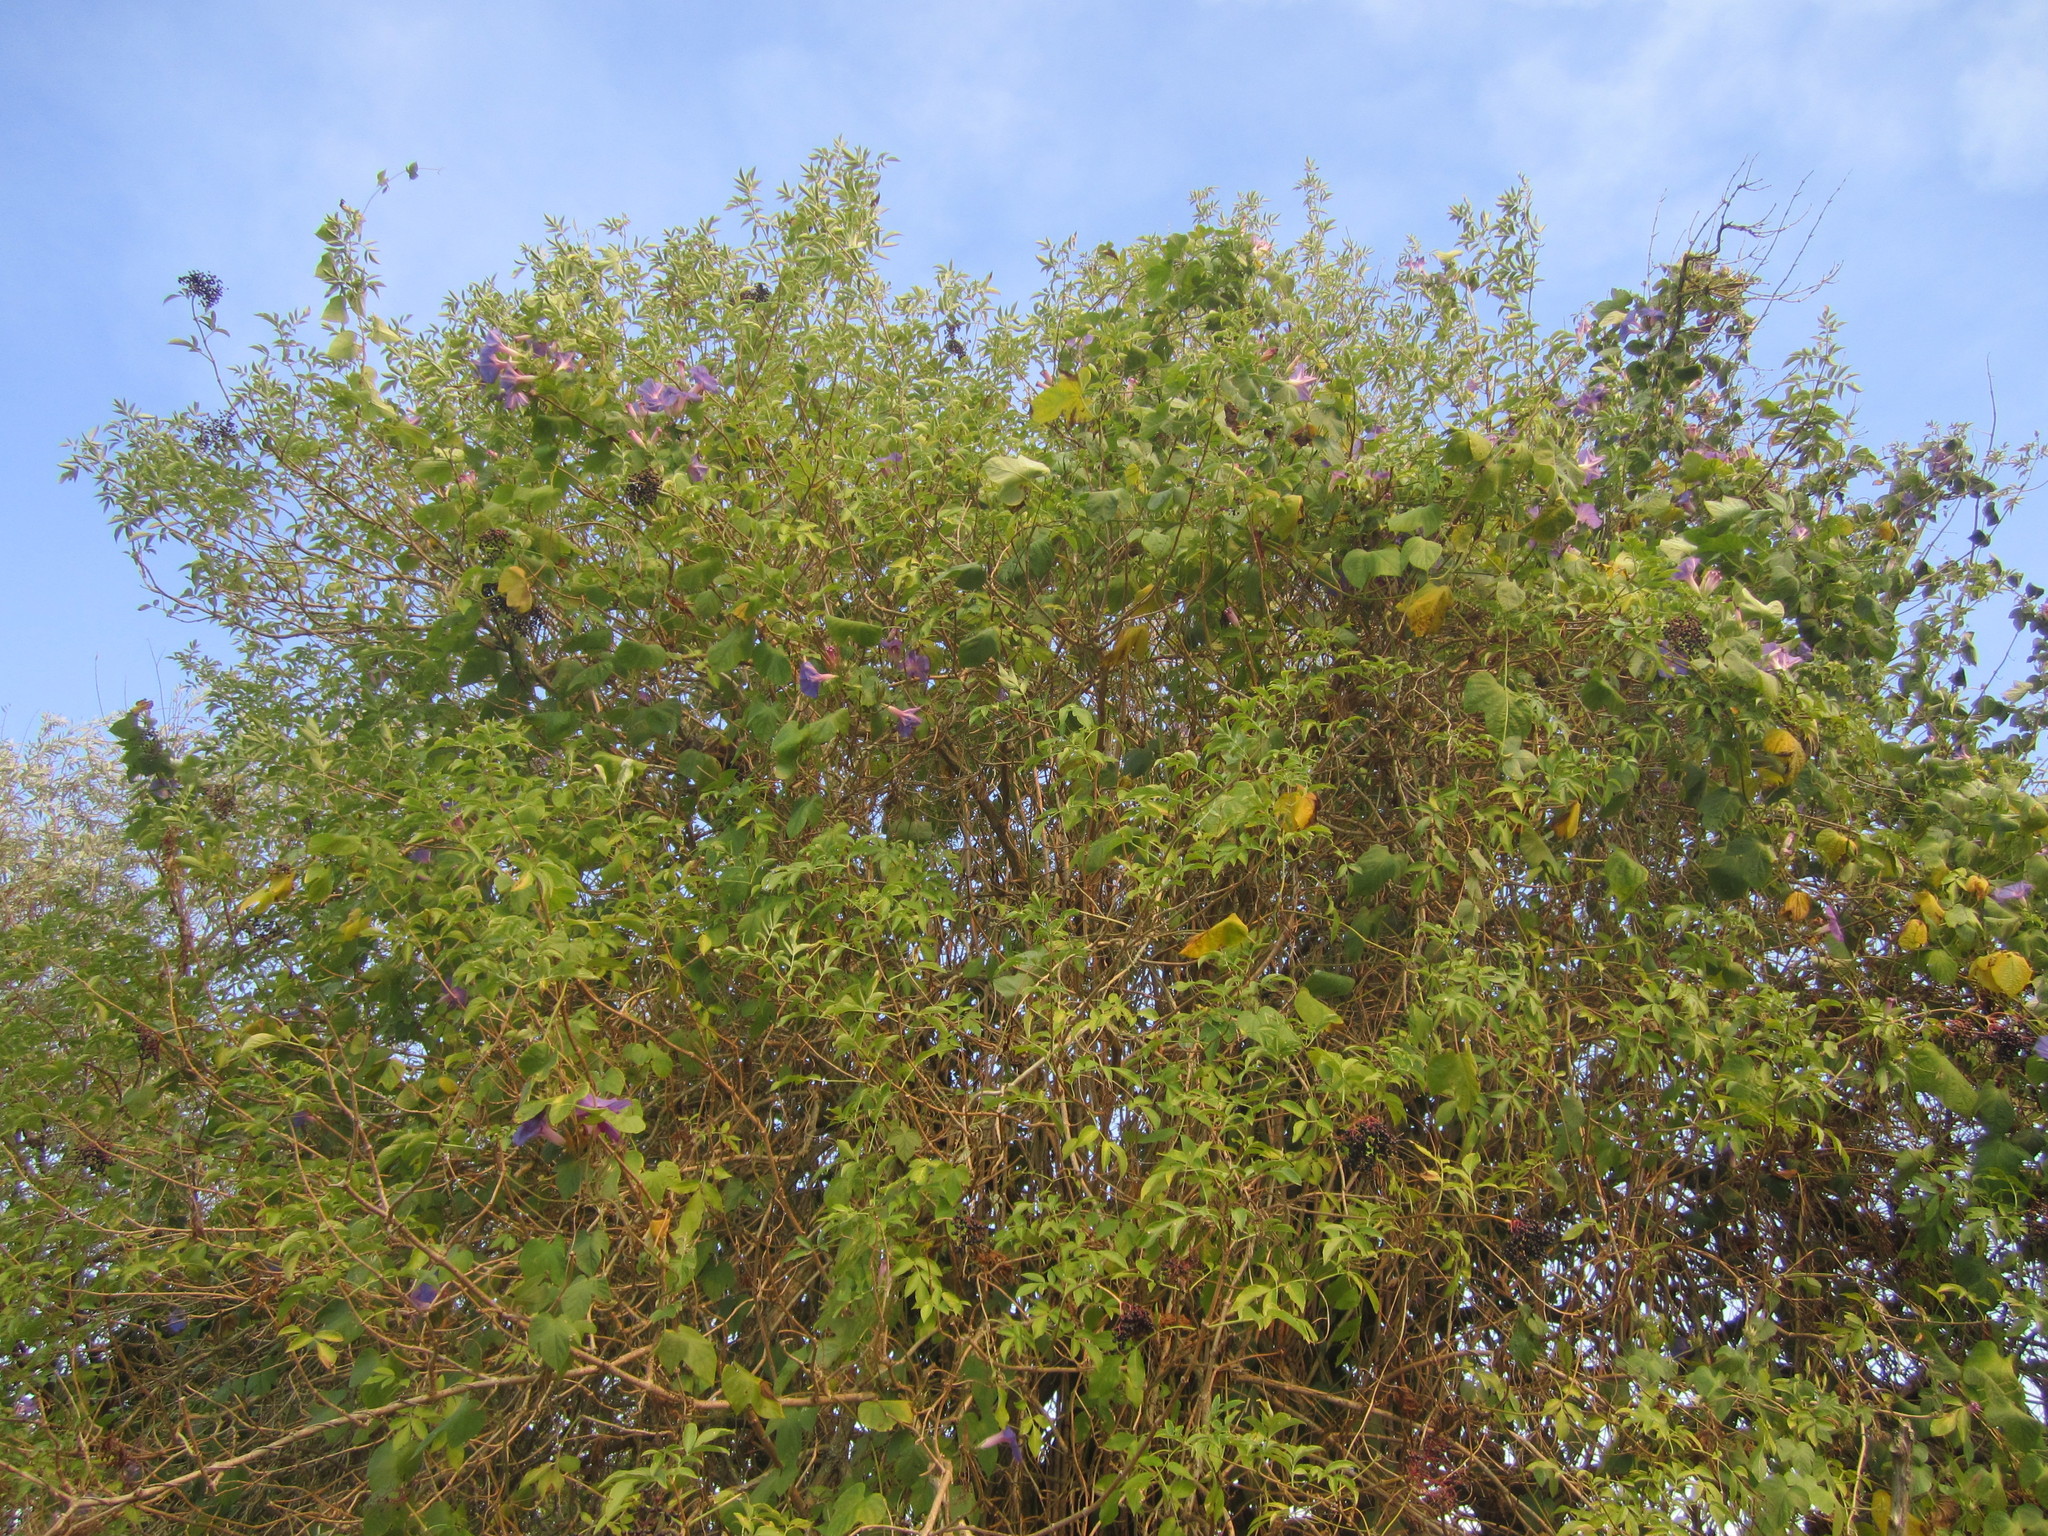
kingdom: Plantae
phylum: Tracheophyta
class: Magnoliopsida
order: Dipsacales
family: Viburnaceae
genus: Sambucus
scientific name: Sambucus nigra
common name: Elder
